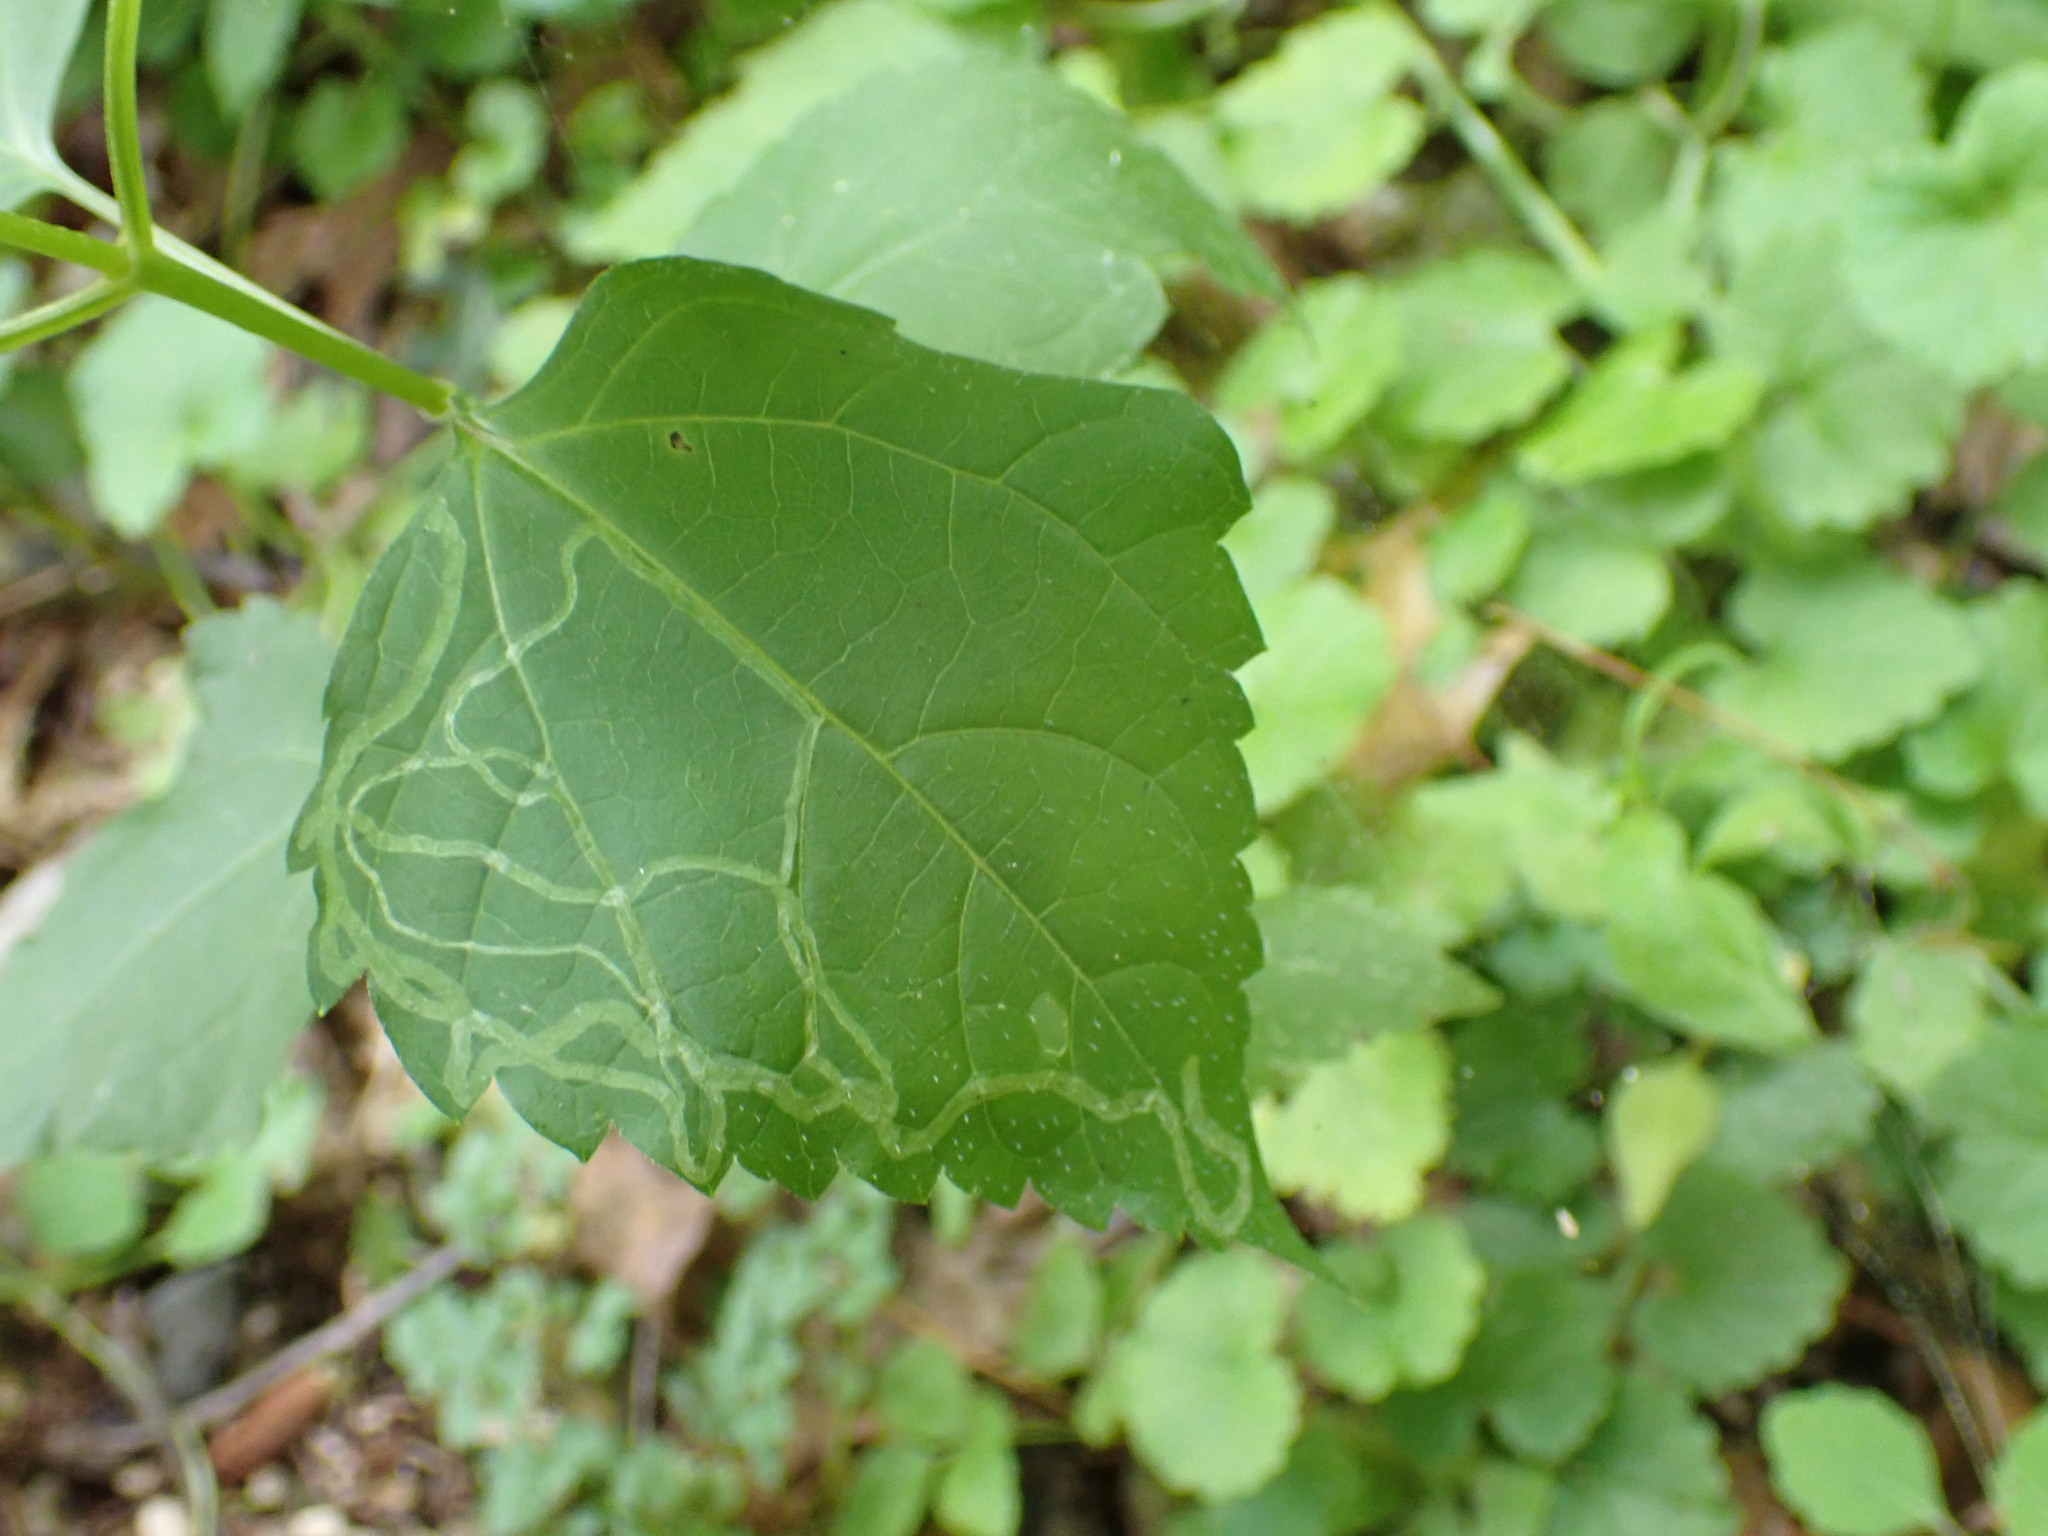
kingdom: Animalia
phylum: Arthropoda
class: Insecta
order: Diptera
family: Agromyzidae
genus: Liriomyza
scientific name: Liriomyza
